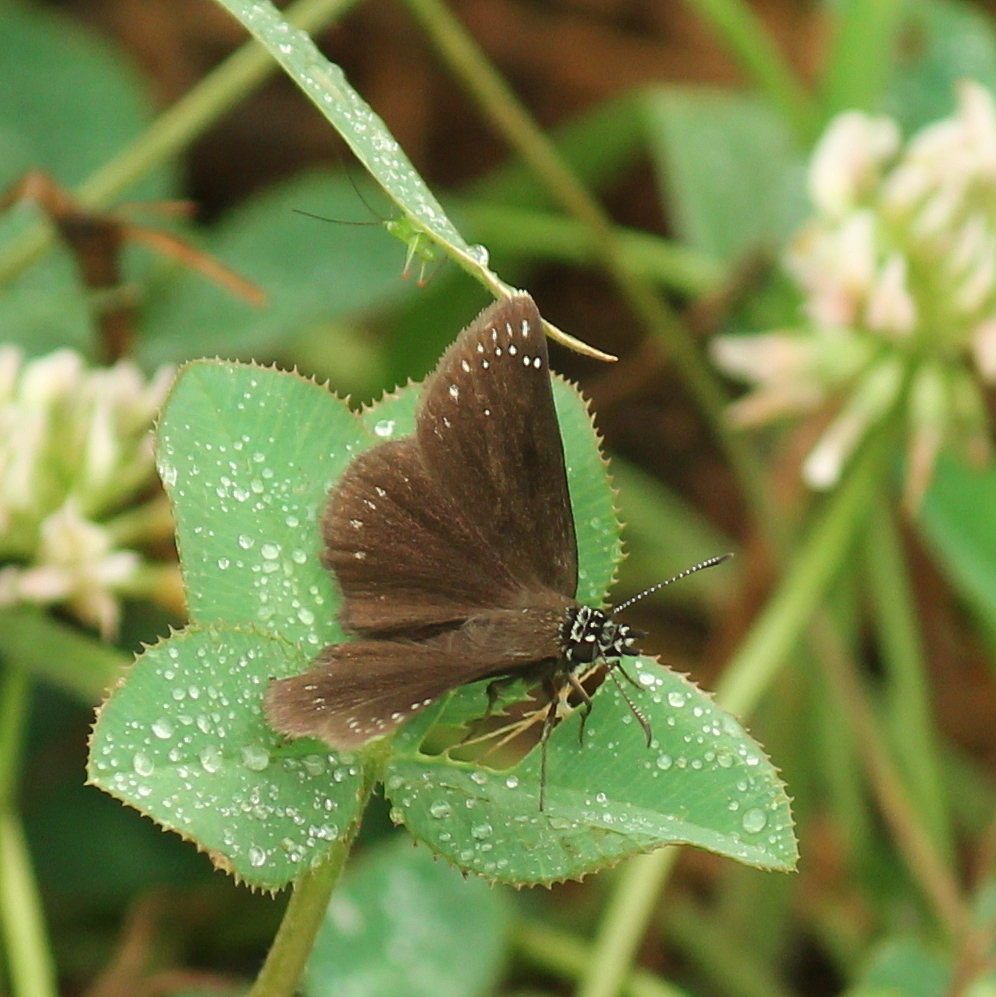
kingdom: Animalia
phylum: Arthropoda
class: Insecta
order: Lepidoptera
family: Hesperiidae
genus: Pholisora
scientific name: Pholisora catullus
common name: Common sootywing
